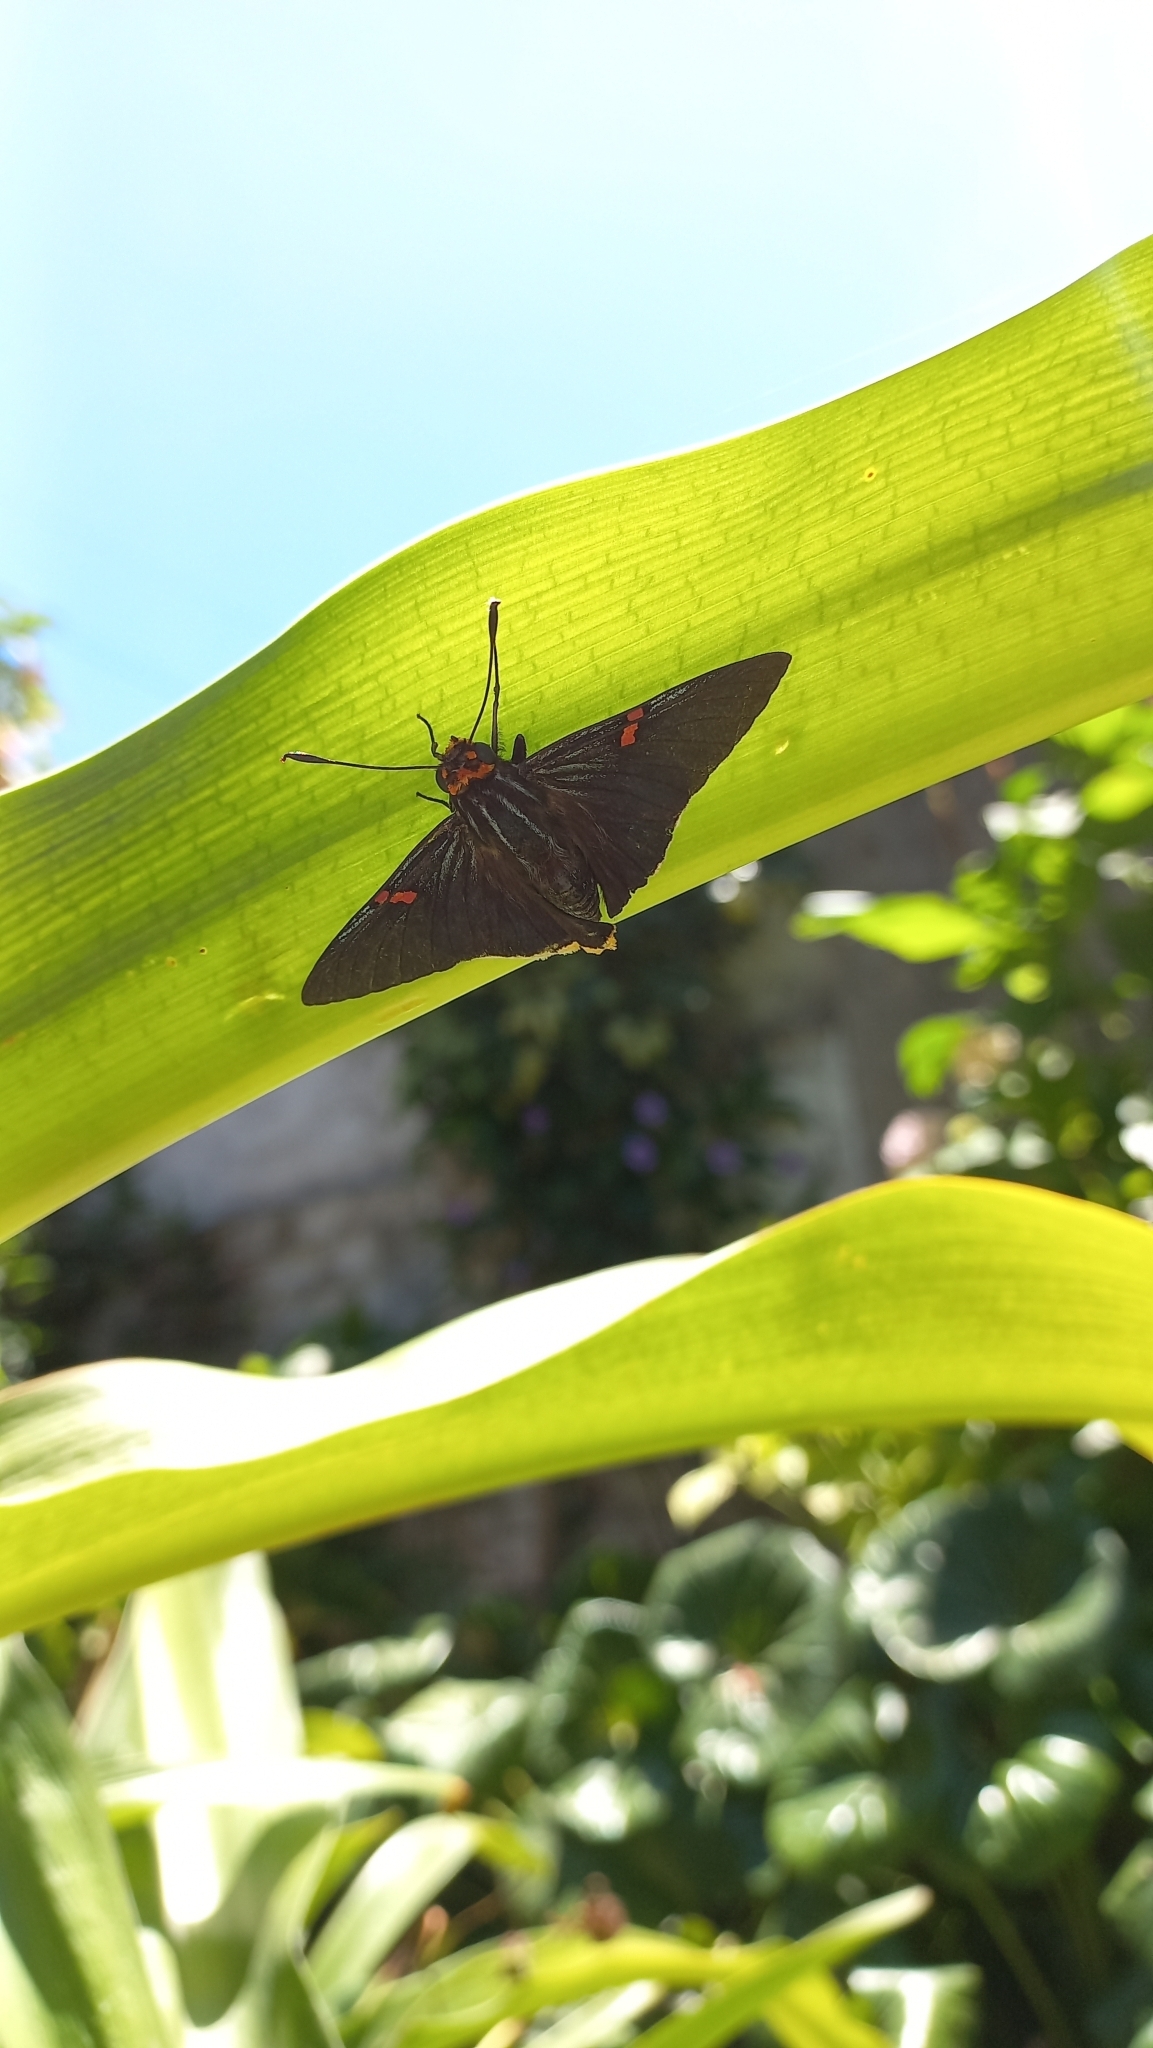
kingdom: Animalia
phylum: Arthropoda
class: Insecta
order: Lepidoptera
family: Hesperiidae
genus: Phocides
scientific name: Phocides polybius
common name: Guava skipper
